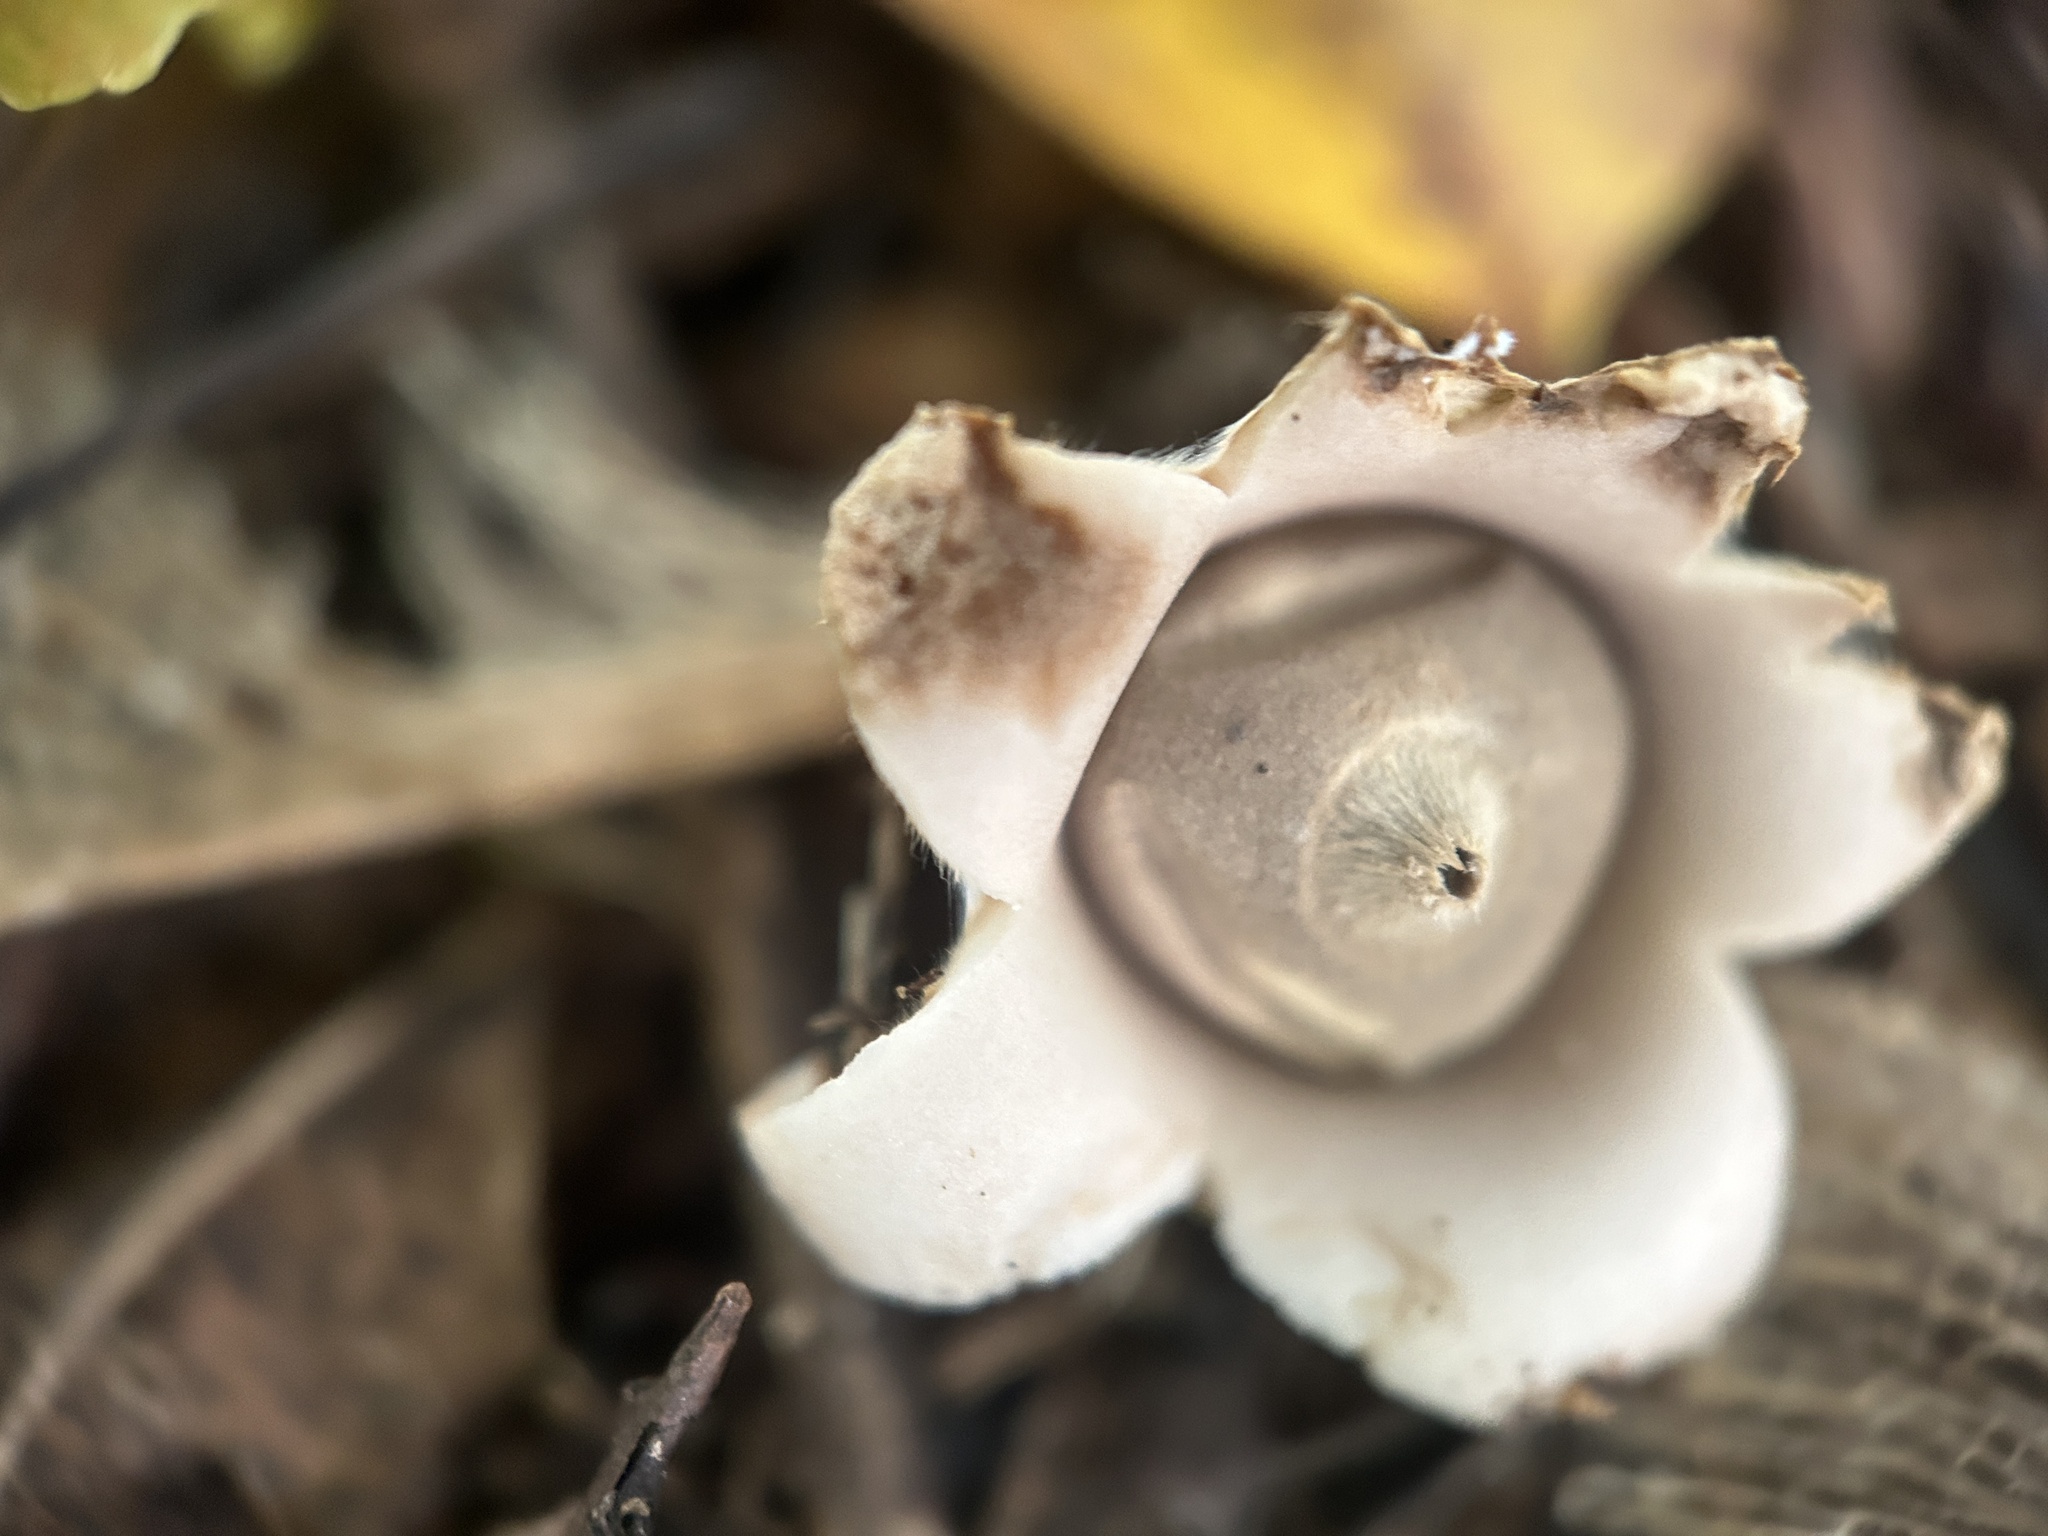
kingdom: Fungi
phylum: Basidiomycota
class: Agaricomycetes
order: Geastrales
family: Geastraceae
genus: Geastrum
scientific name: Geastrum saccatum
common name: Rounded earthstar
